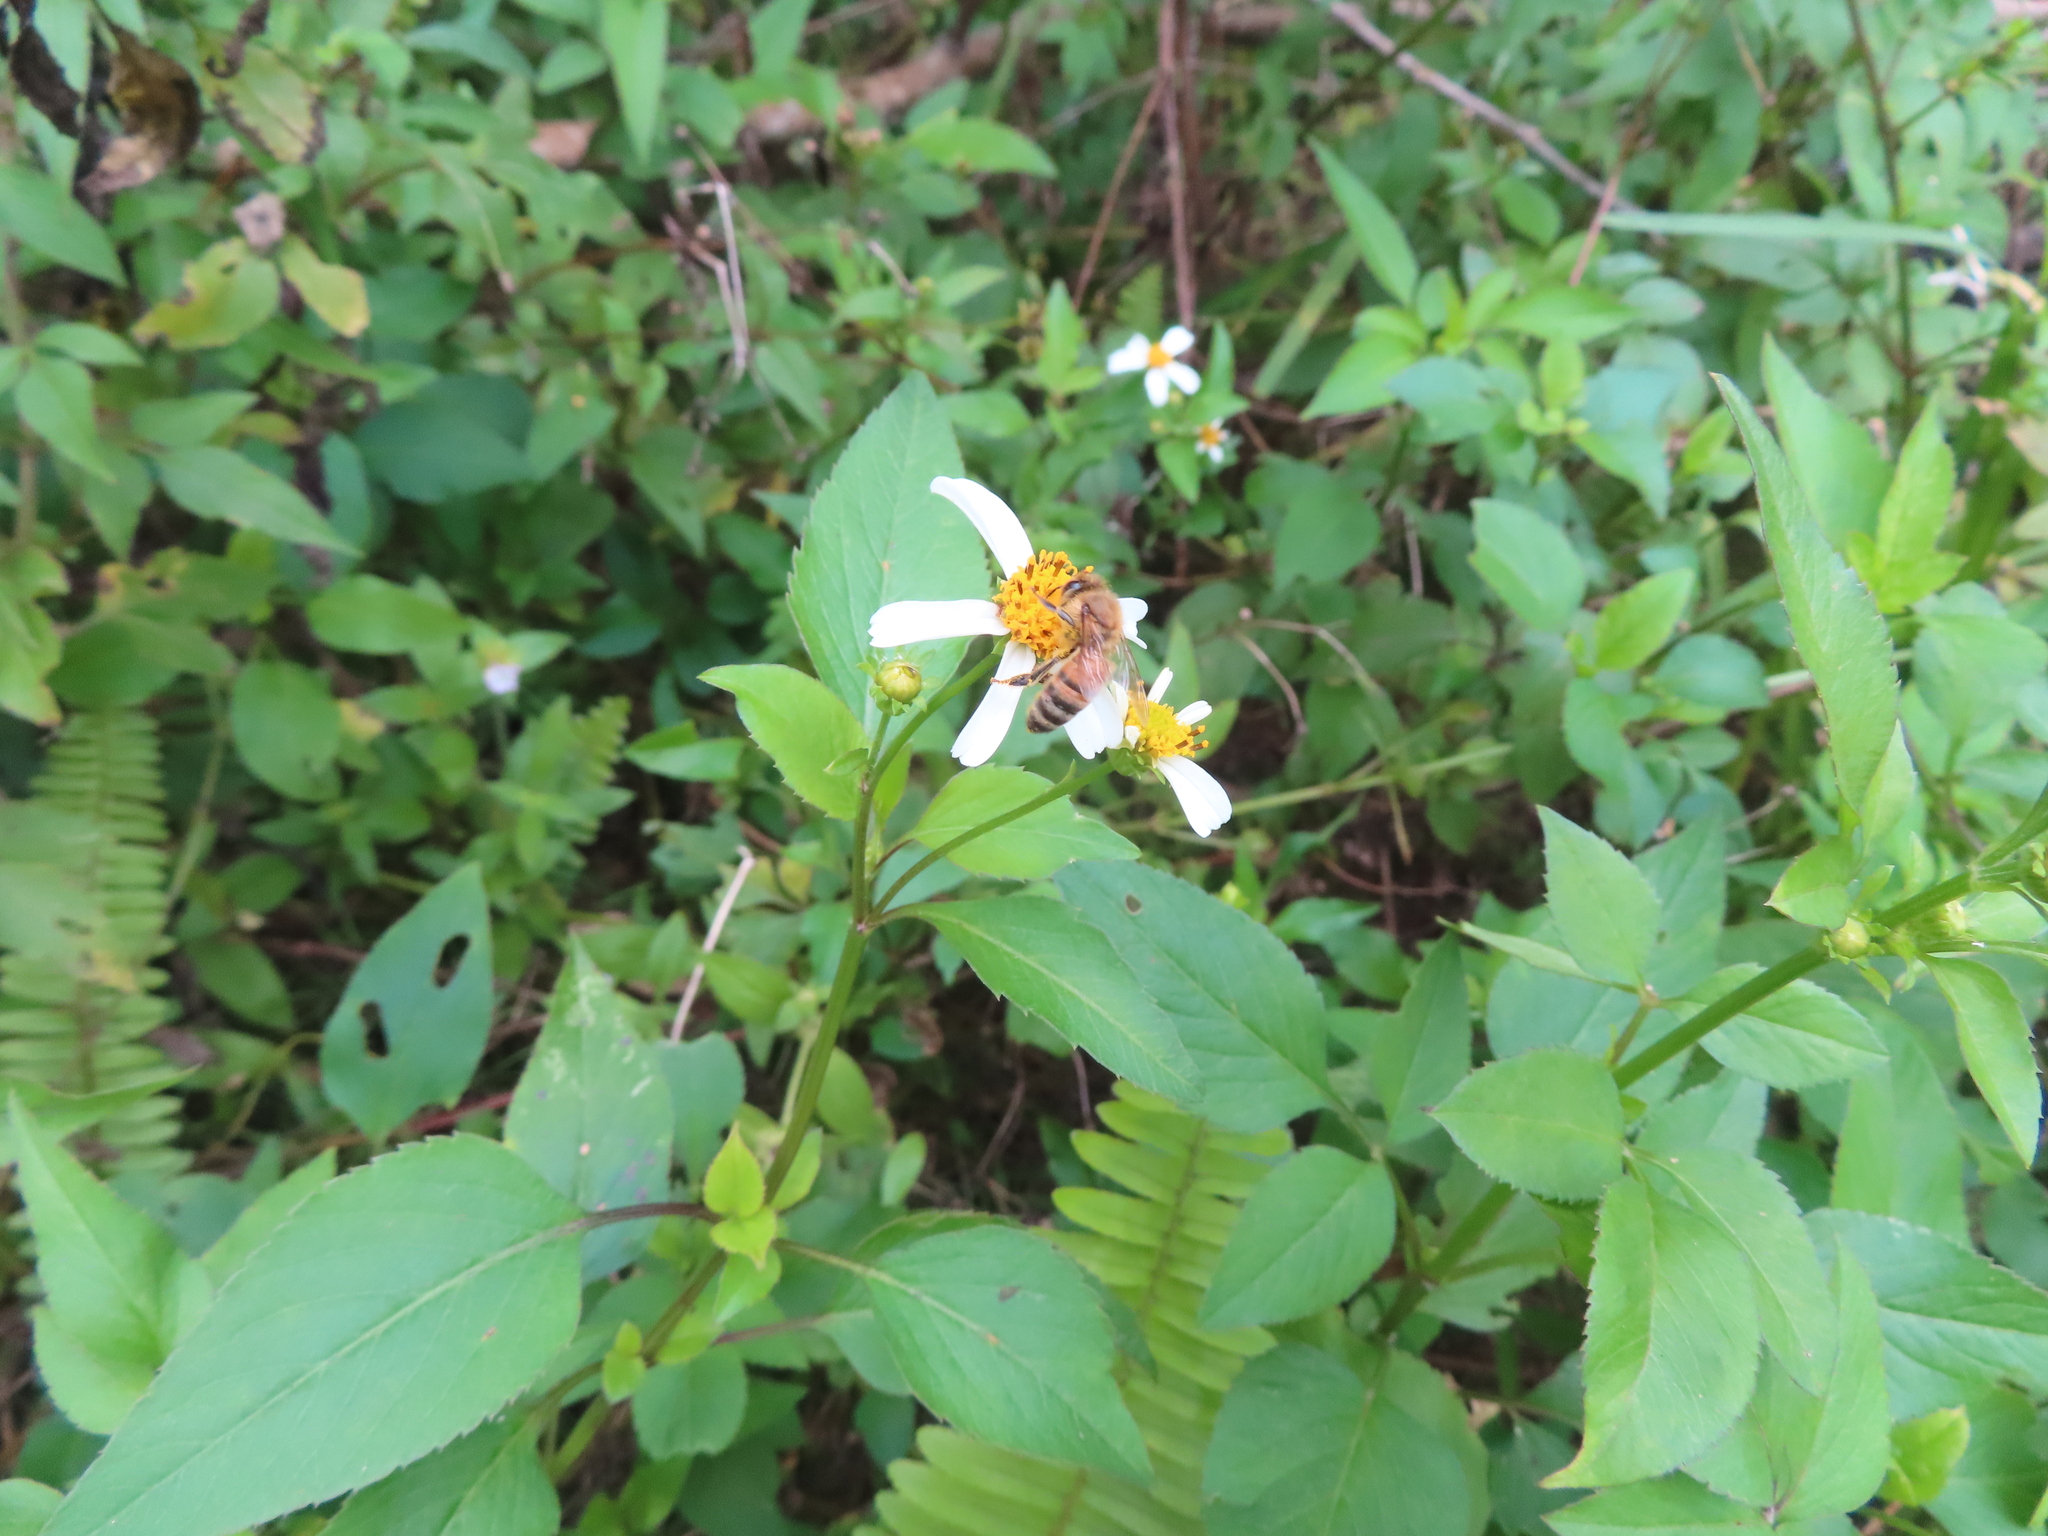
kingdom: Plantae
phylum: Tracheophyta
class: Magnoliopsida
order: Asterales
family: Asteraceae
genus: Bidens
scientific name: Bidens alba
